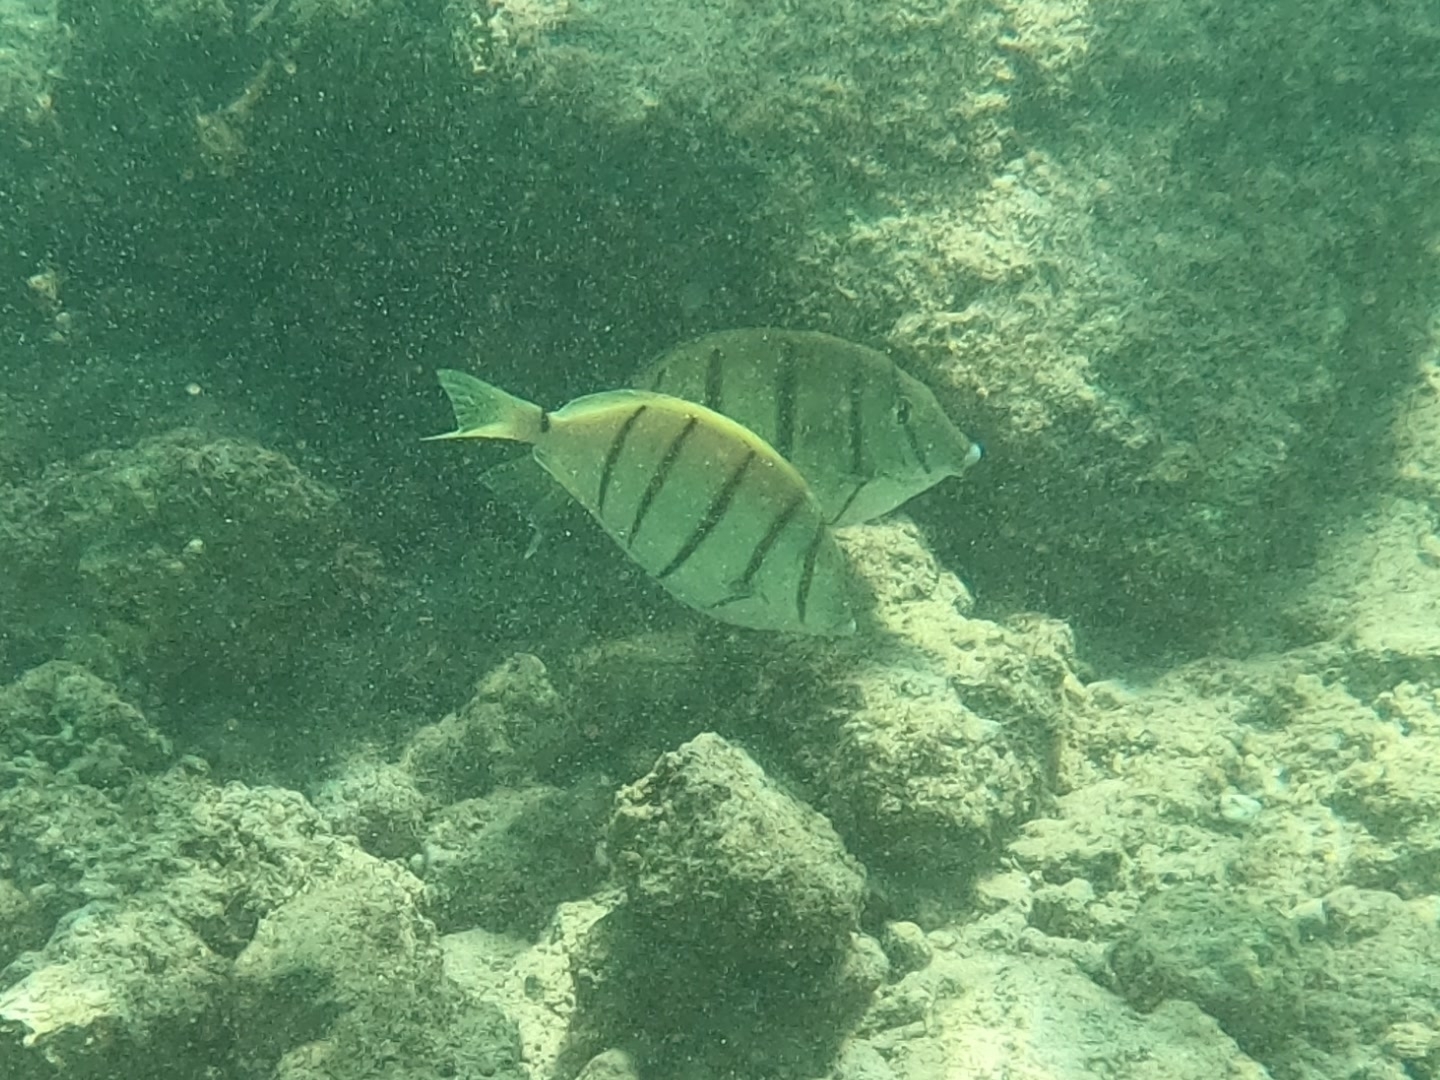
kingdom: Animalia
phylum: Chordata
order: Perciformes
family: Acanthuridae
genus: Acanthurus
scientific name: Acanthurus triostegus
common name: Convict surgeonfish
